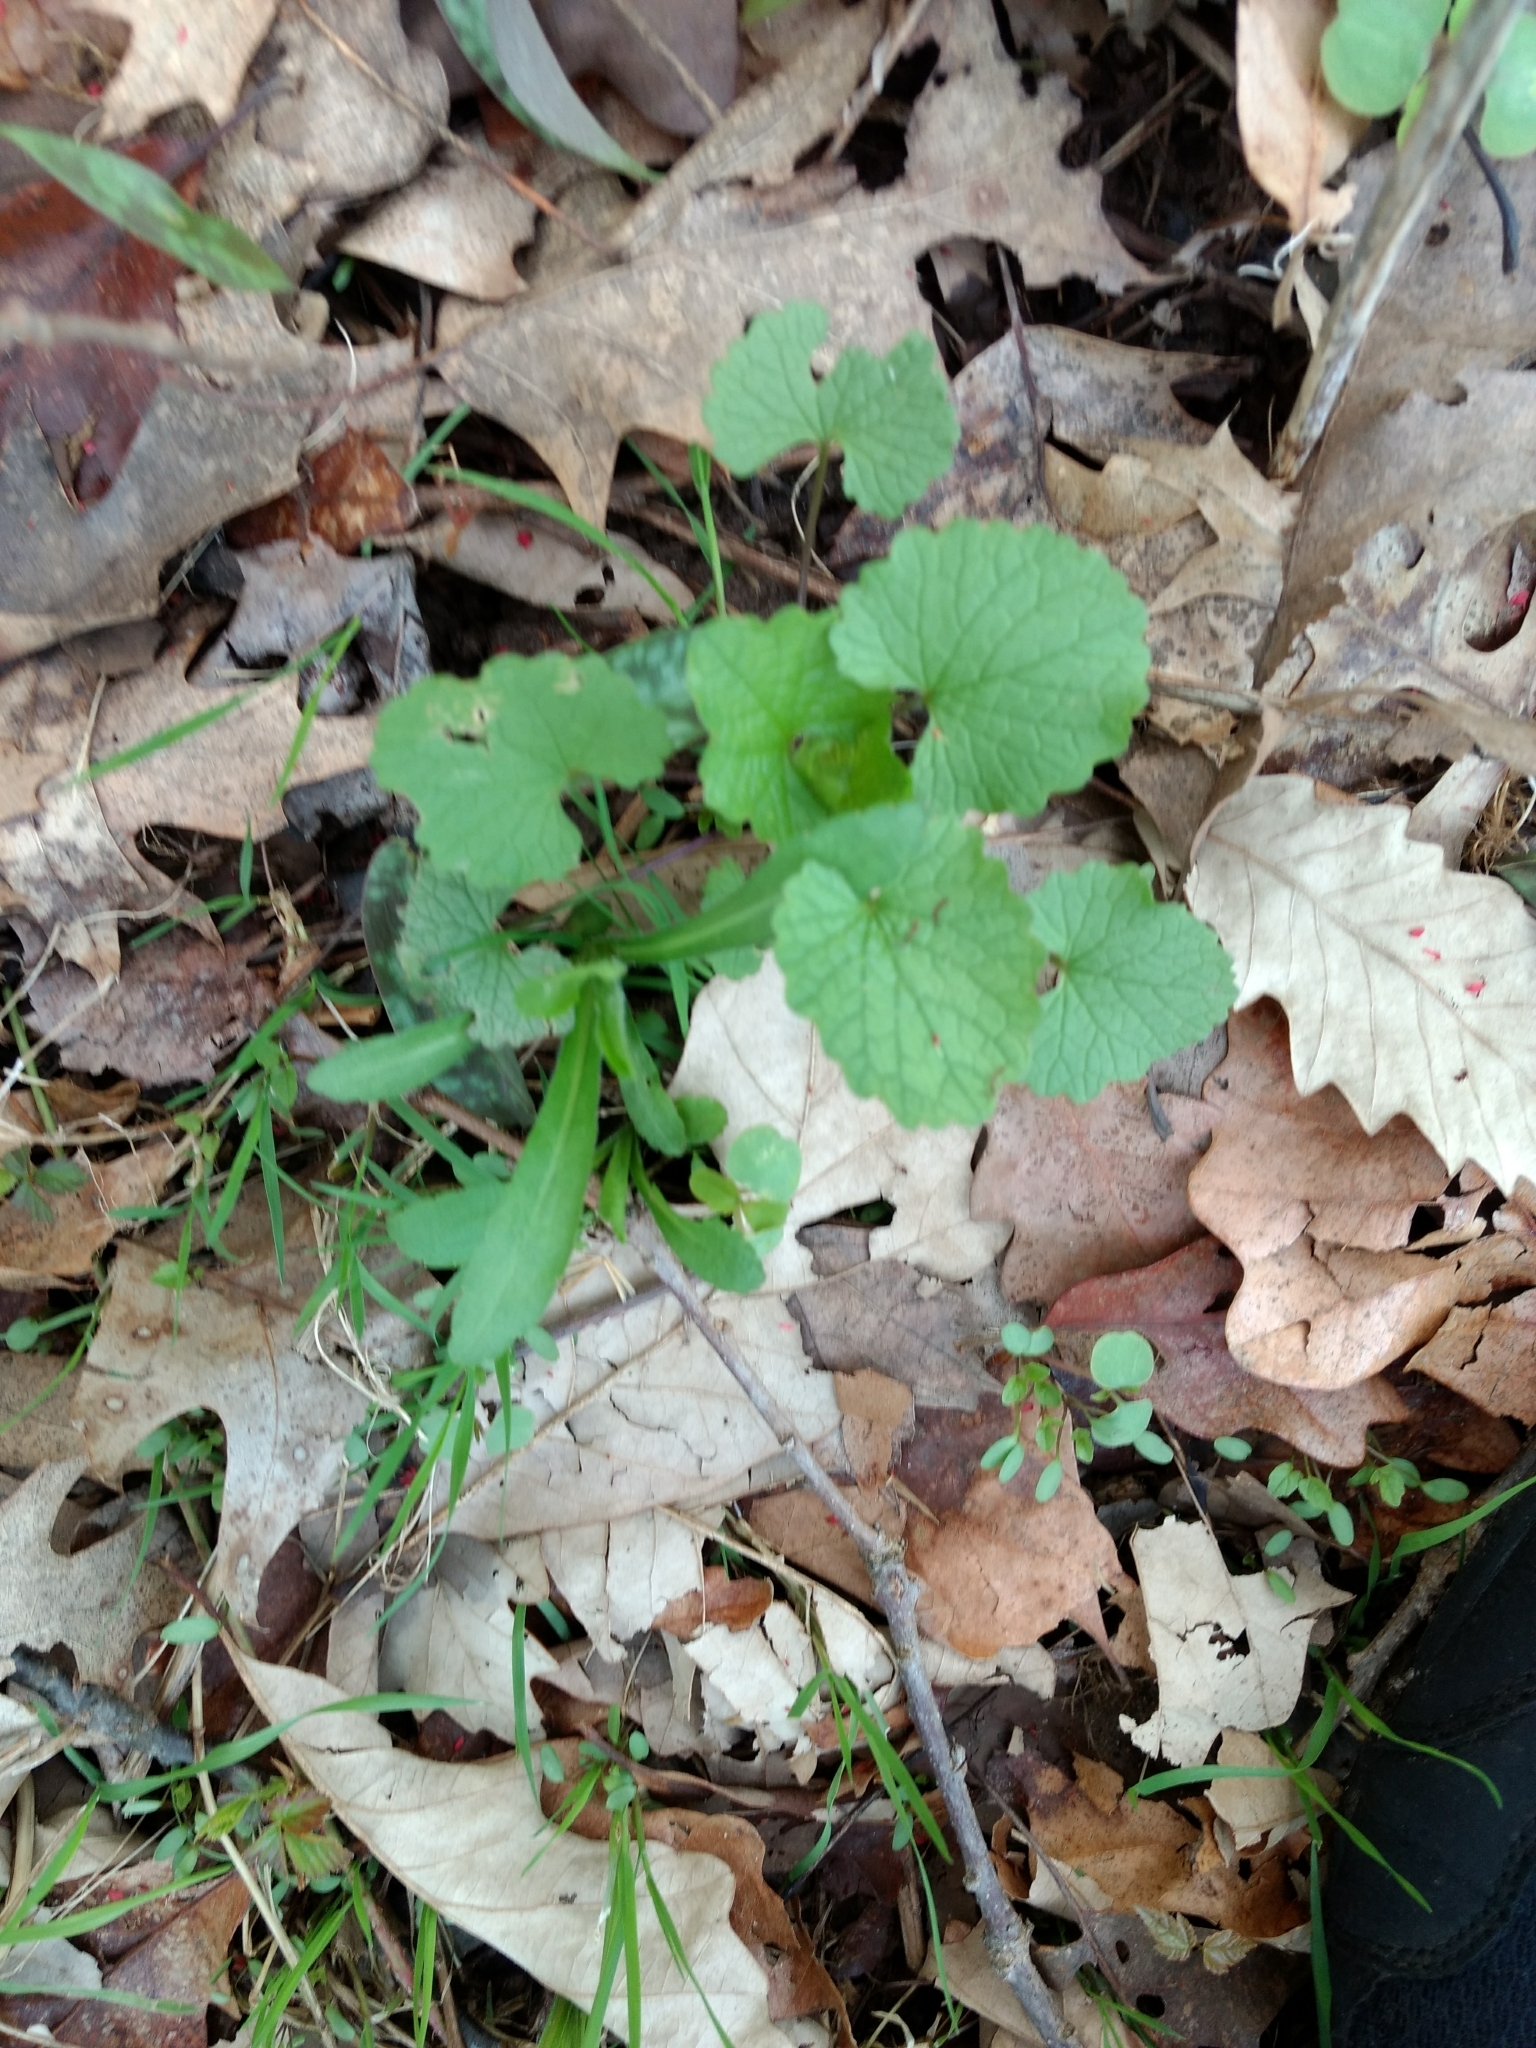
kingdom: Plantae
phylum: Tracheophyta
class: Magnoliopsida
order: Brassicales
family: Brassicaceae
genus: Alliaria
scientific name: Alliaria petiolata
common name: Garlic mustard
